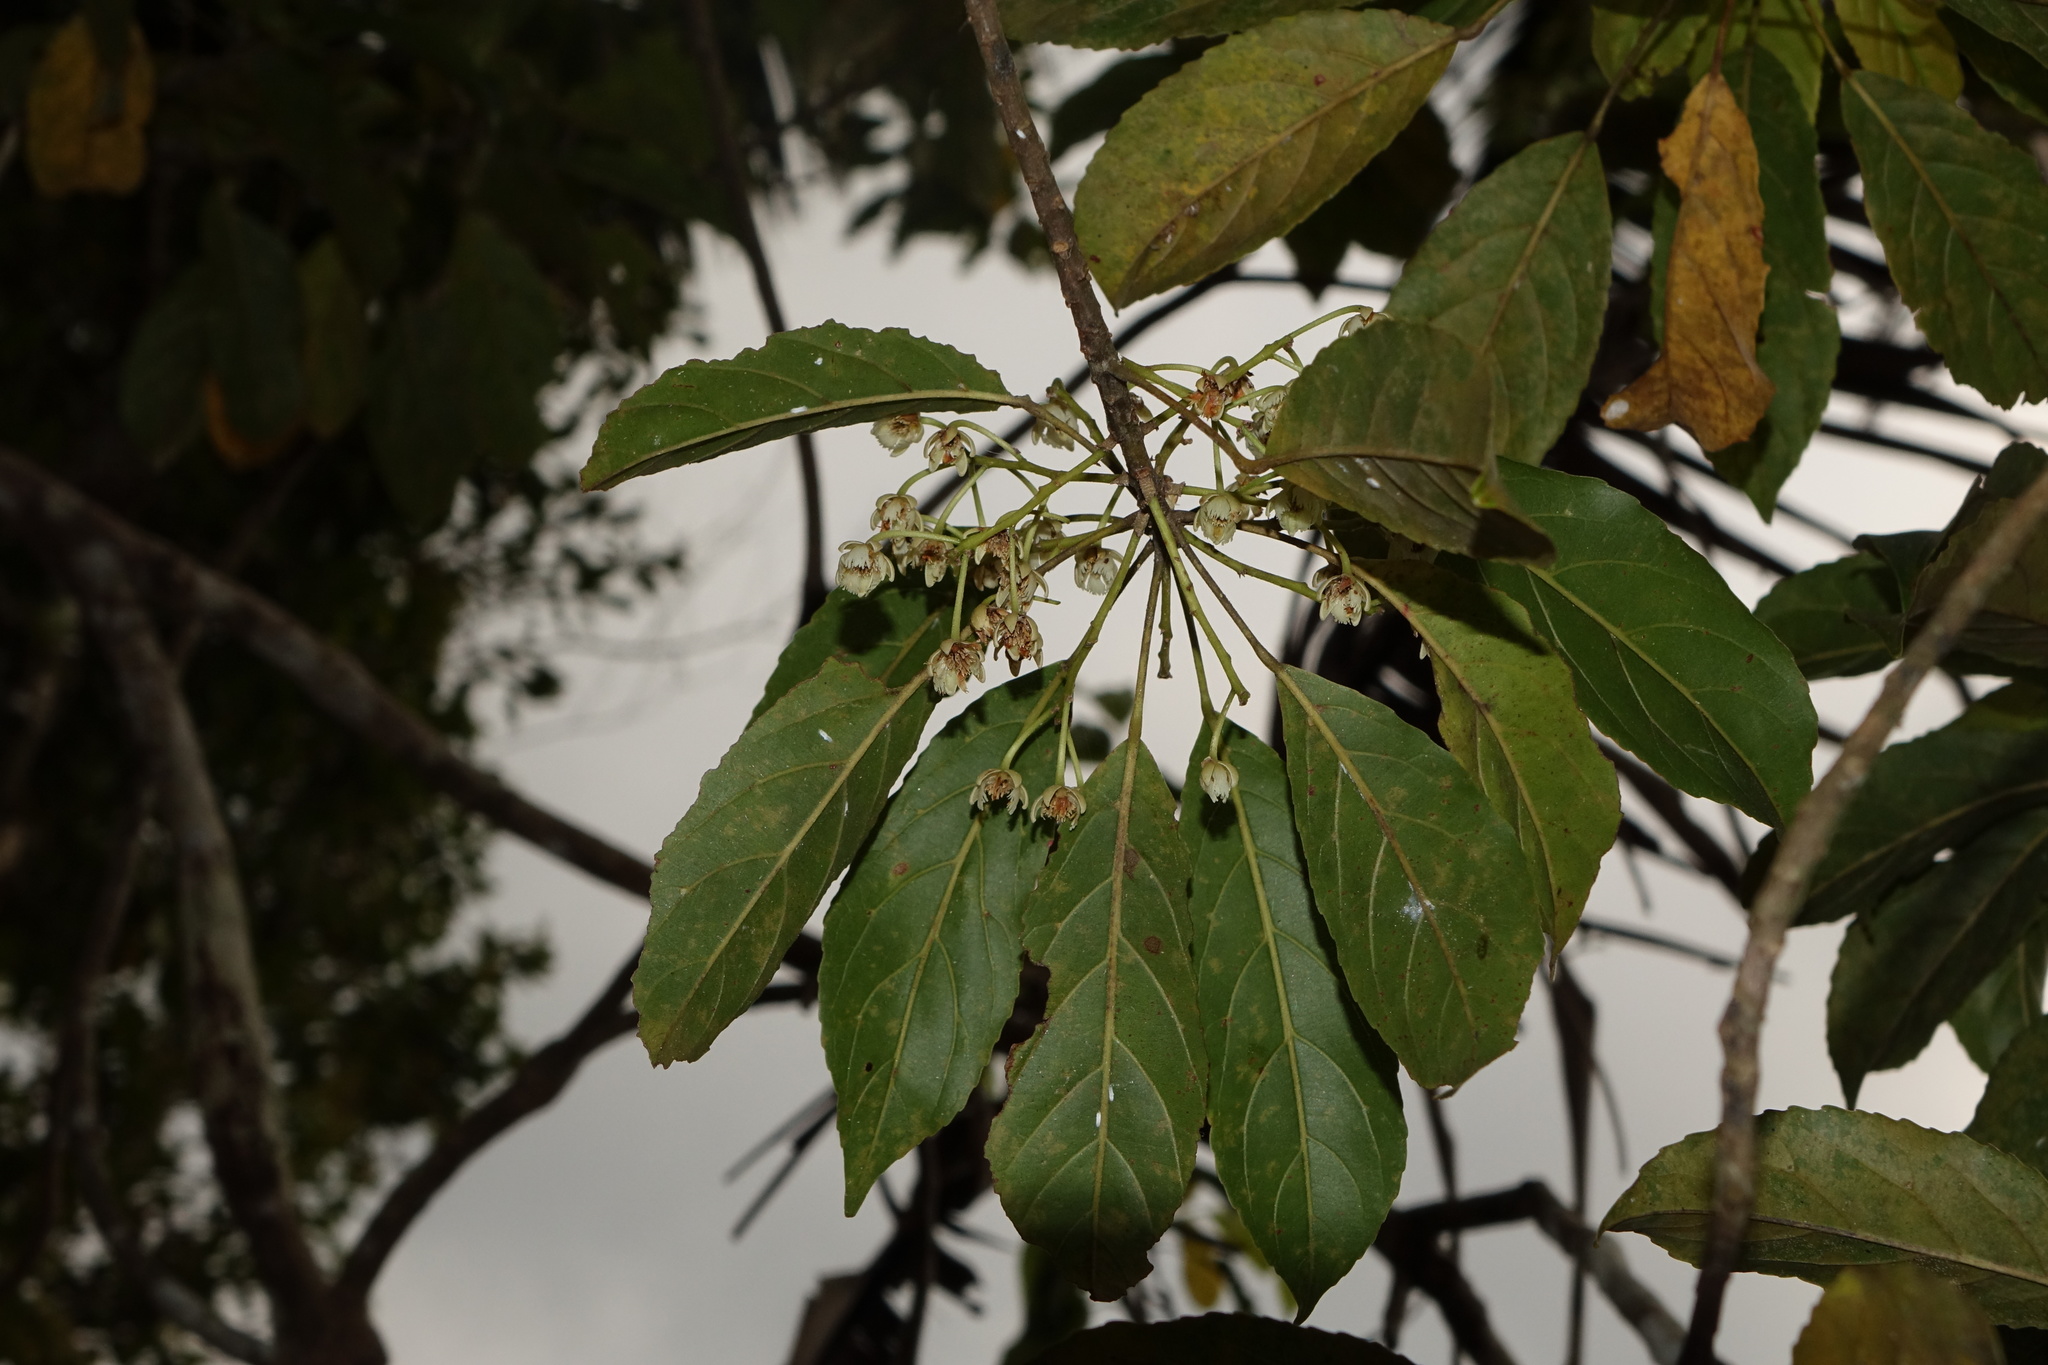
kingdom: Plantae
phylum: Tracheophyta
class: Magnoliopsida
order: Oxalidales
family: Elaeocarpaceae
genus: Elaeocarpus
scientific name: Elaeocarpus subserratus
